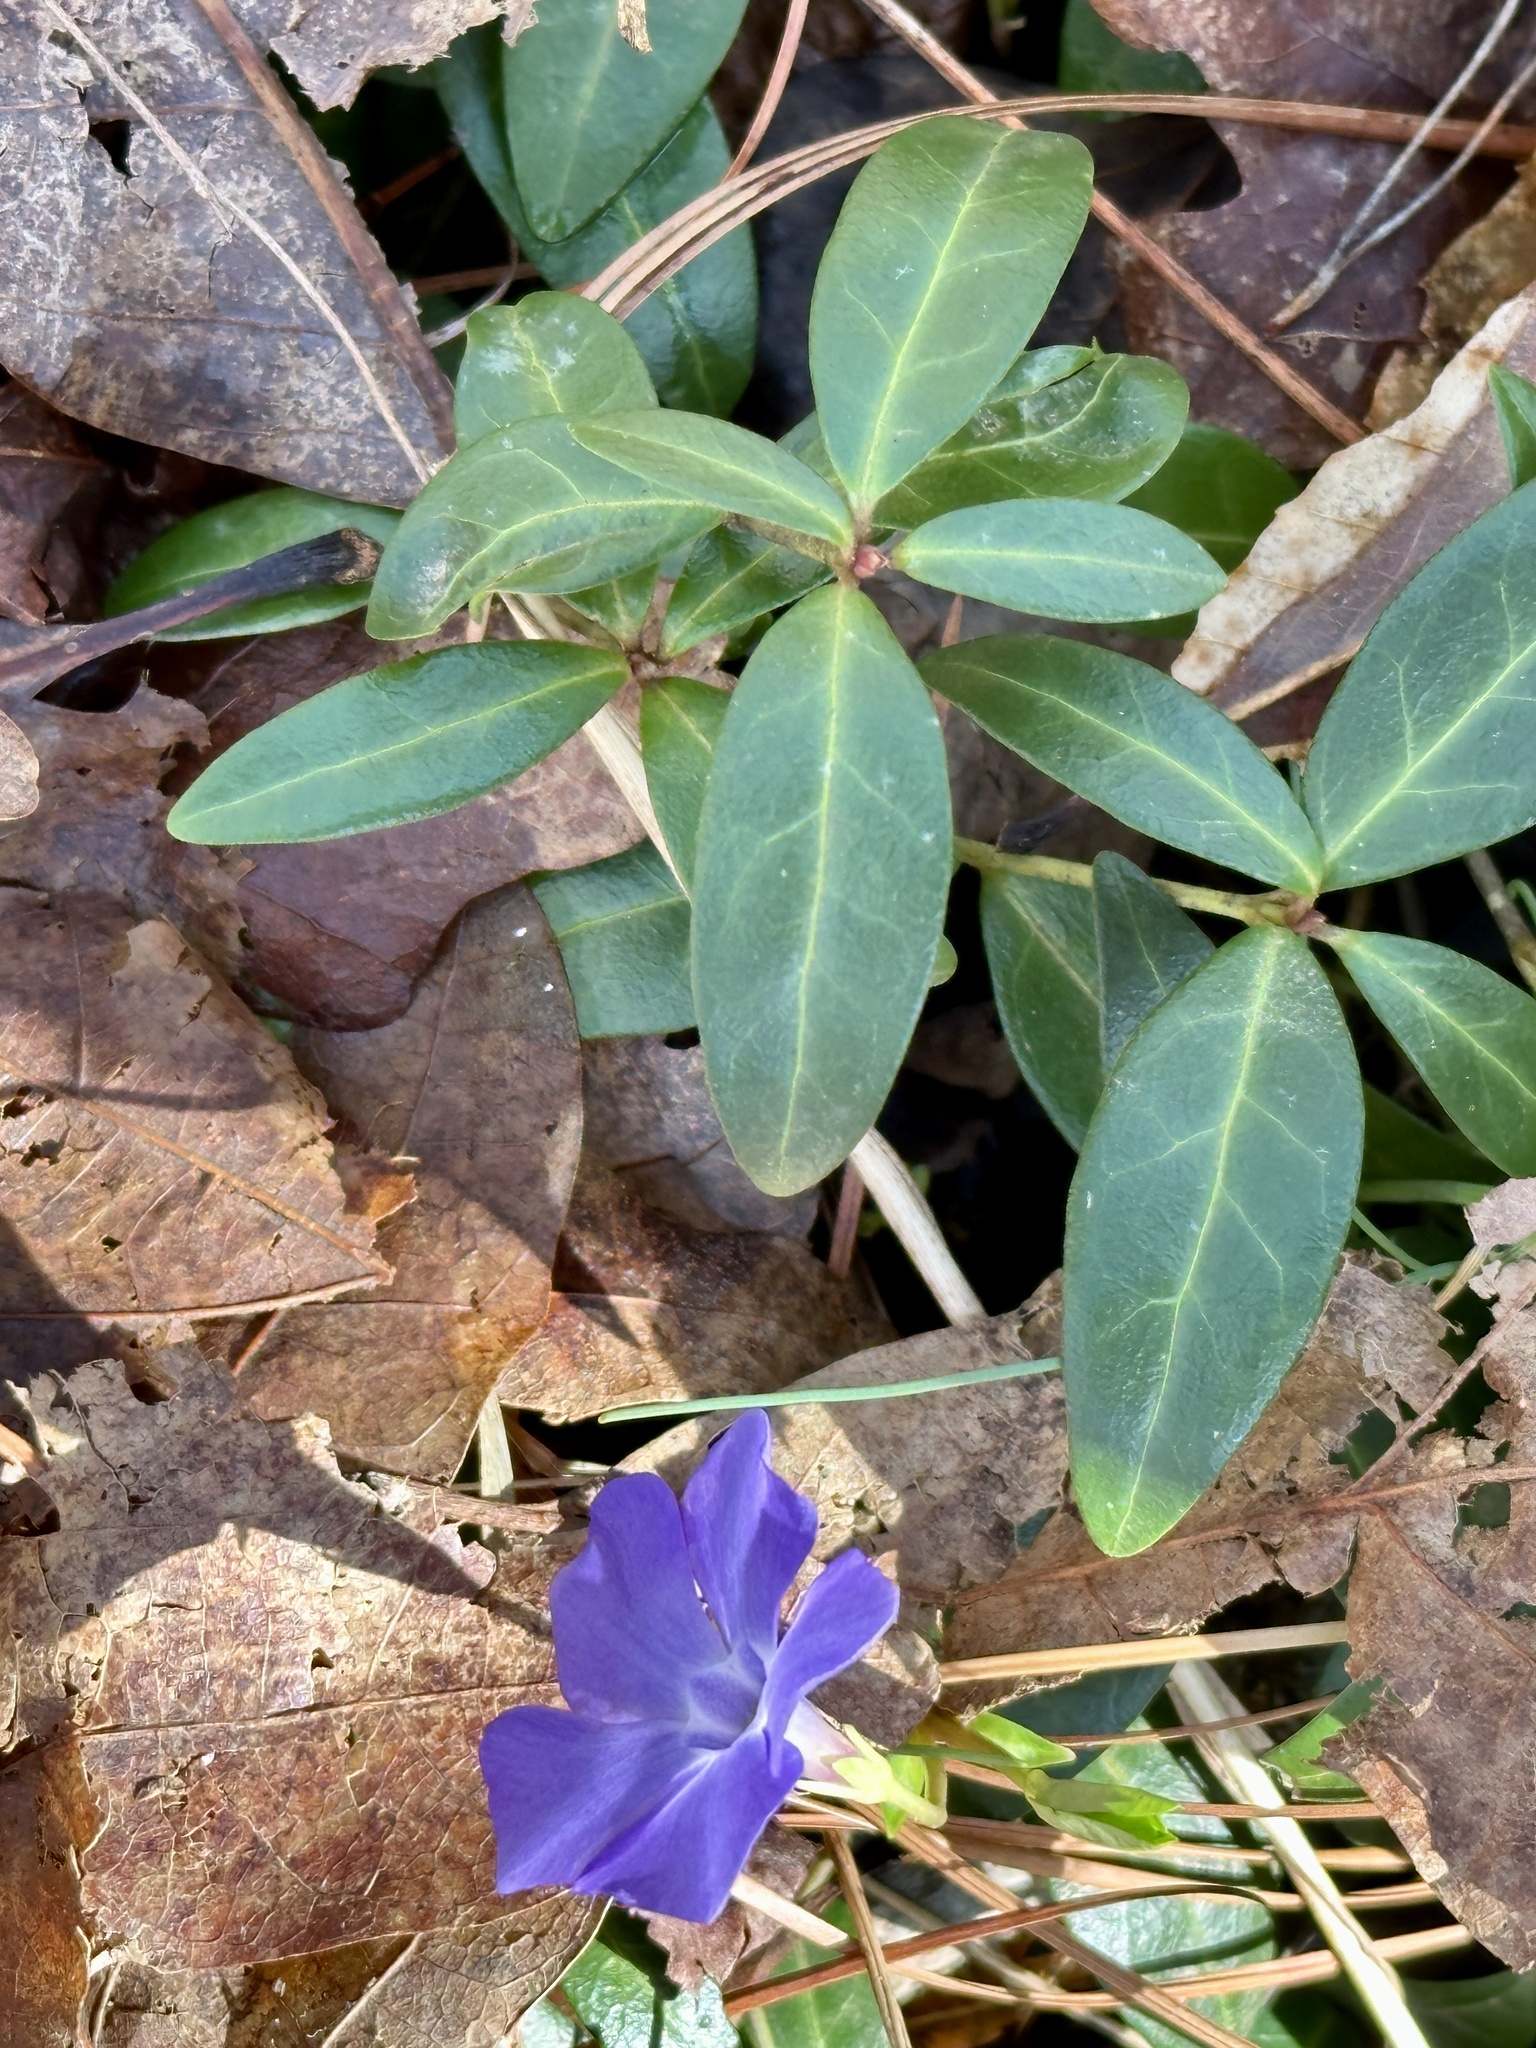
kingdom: Plantae
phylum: Tracheophyta
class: Magnoliopsida
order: Gentianales
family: Apocynaceae
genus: Vinca
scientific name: Vinca minor
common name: Lesser periwinkle
